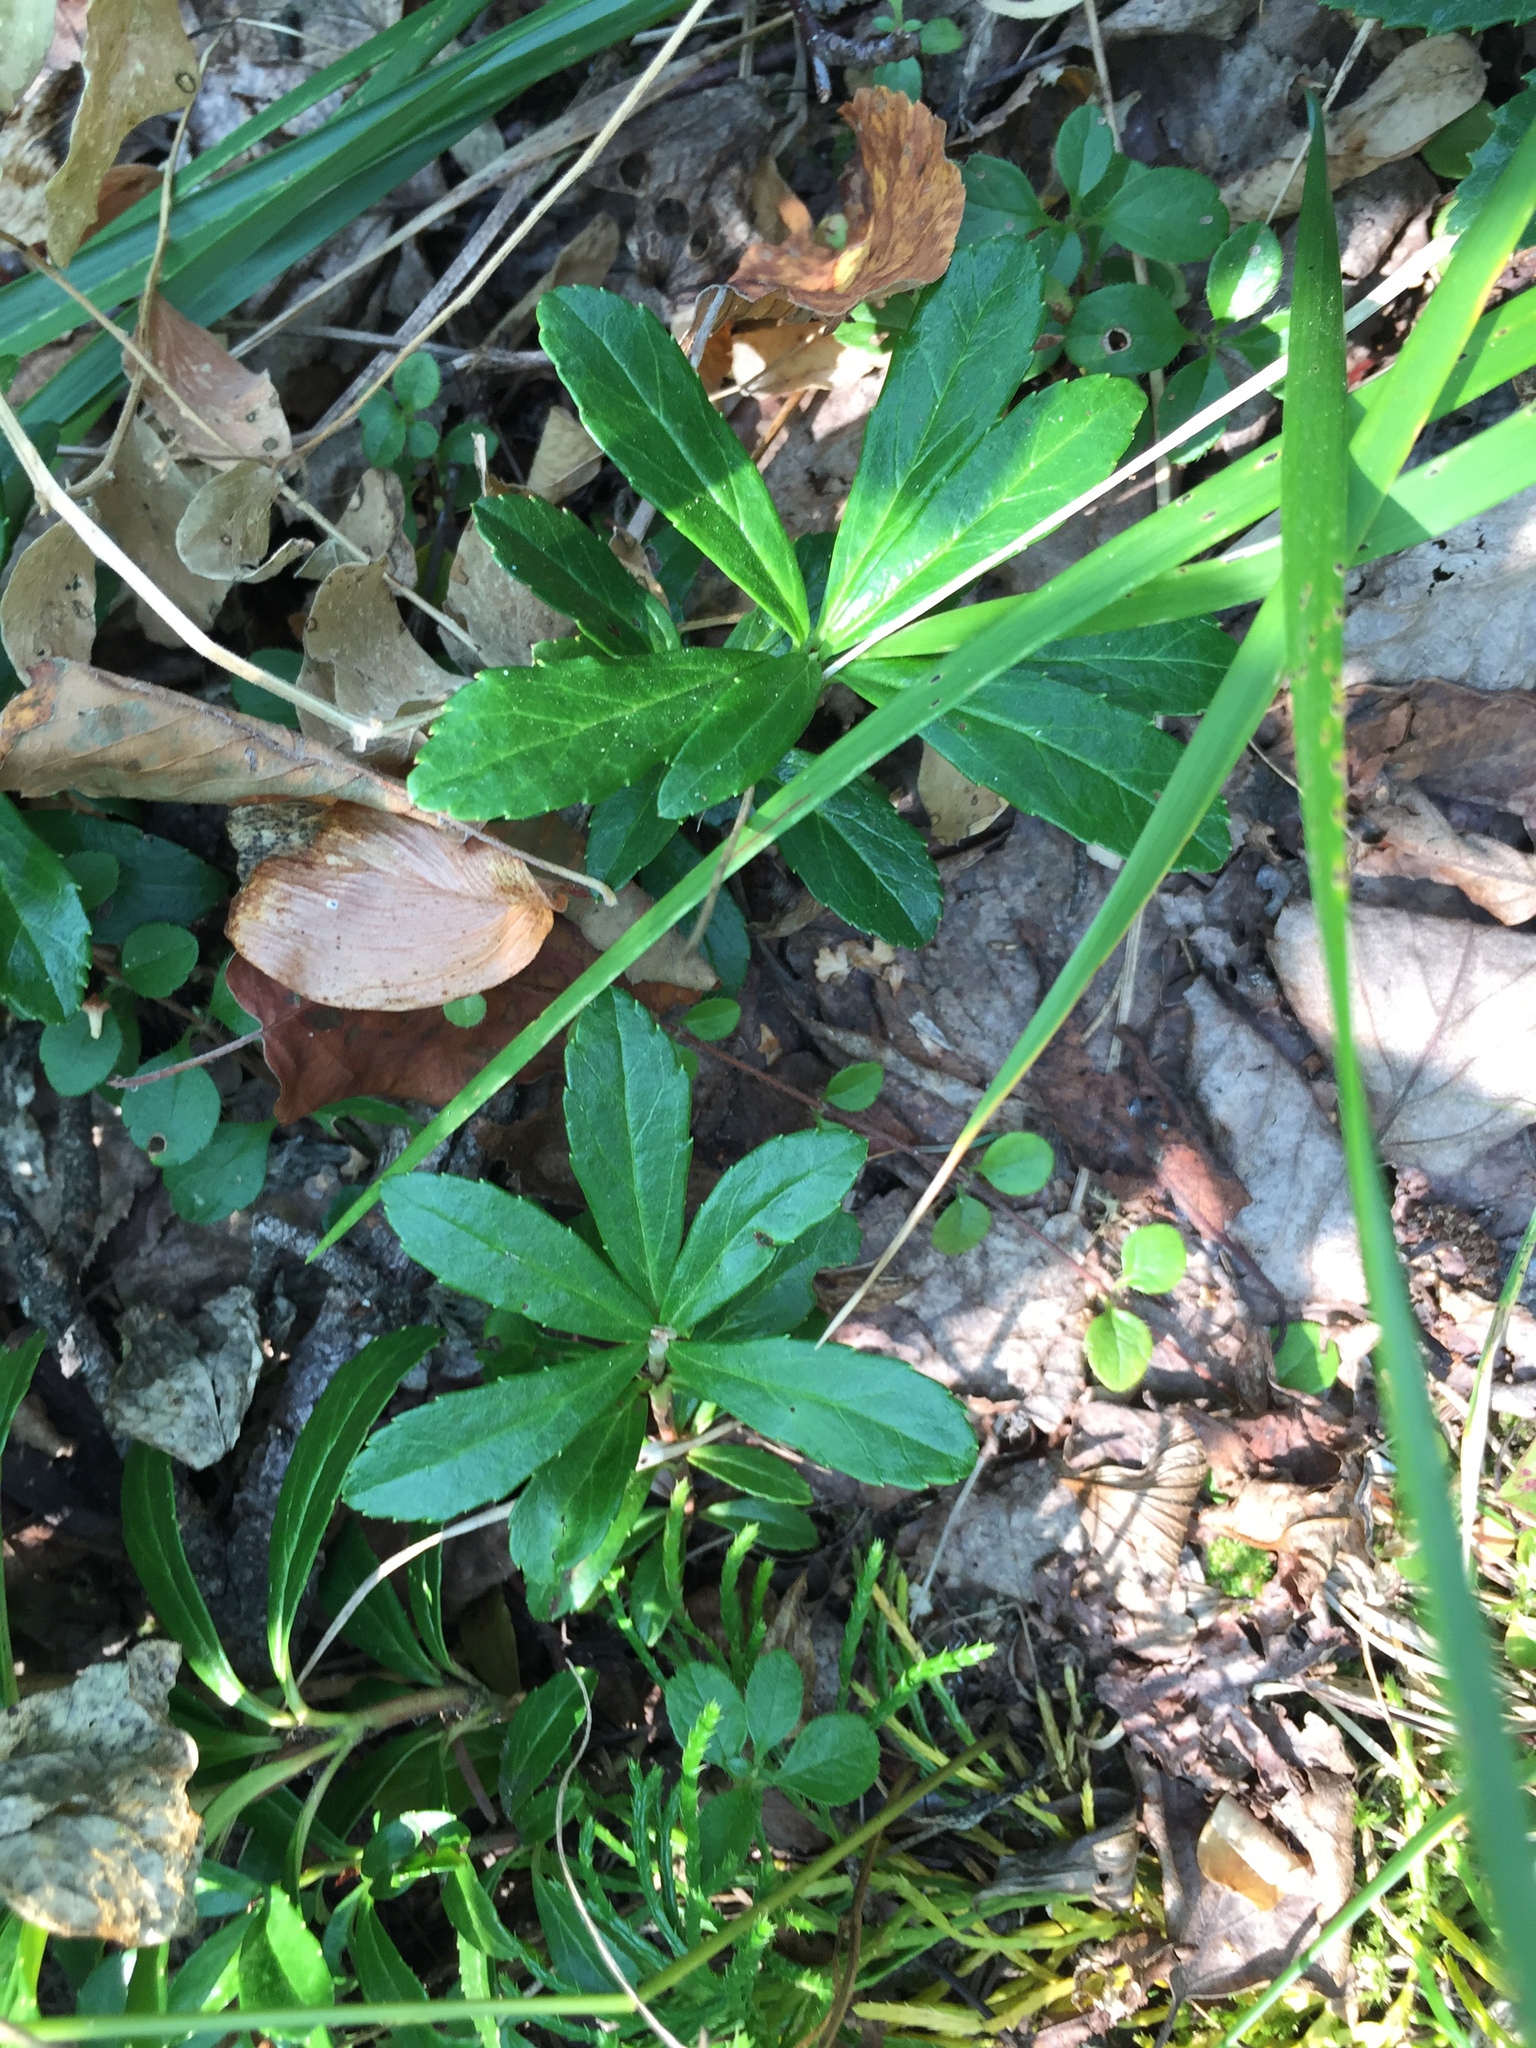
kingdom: Plantae
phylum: Tracheophyta
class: Magnoliopsida
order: Ericales
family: Ericaceae
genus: Chimaphila
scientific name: Chimaphila umbellata
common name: Pipsissewa
